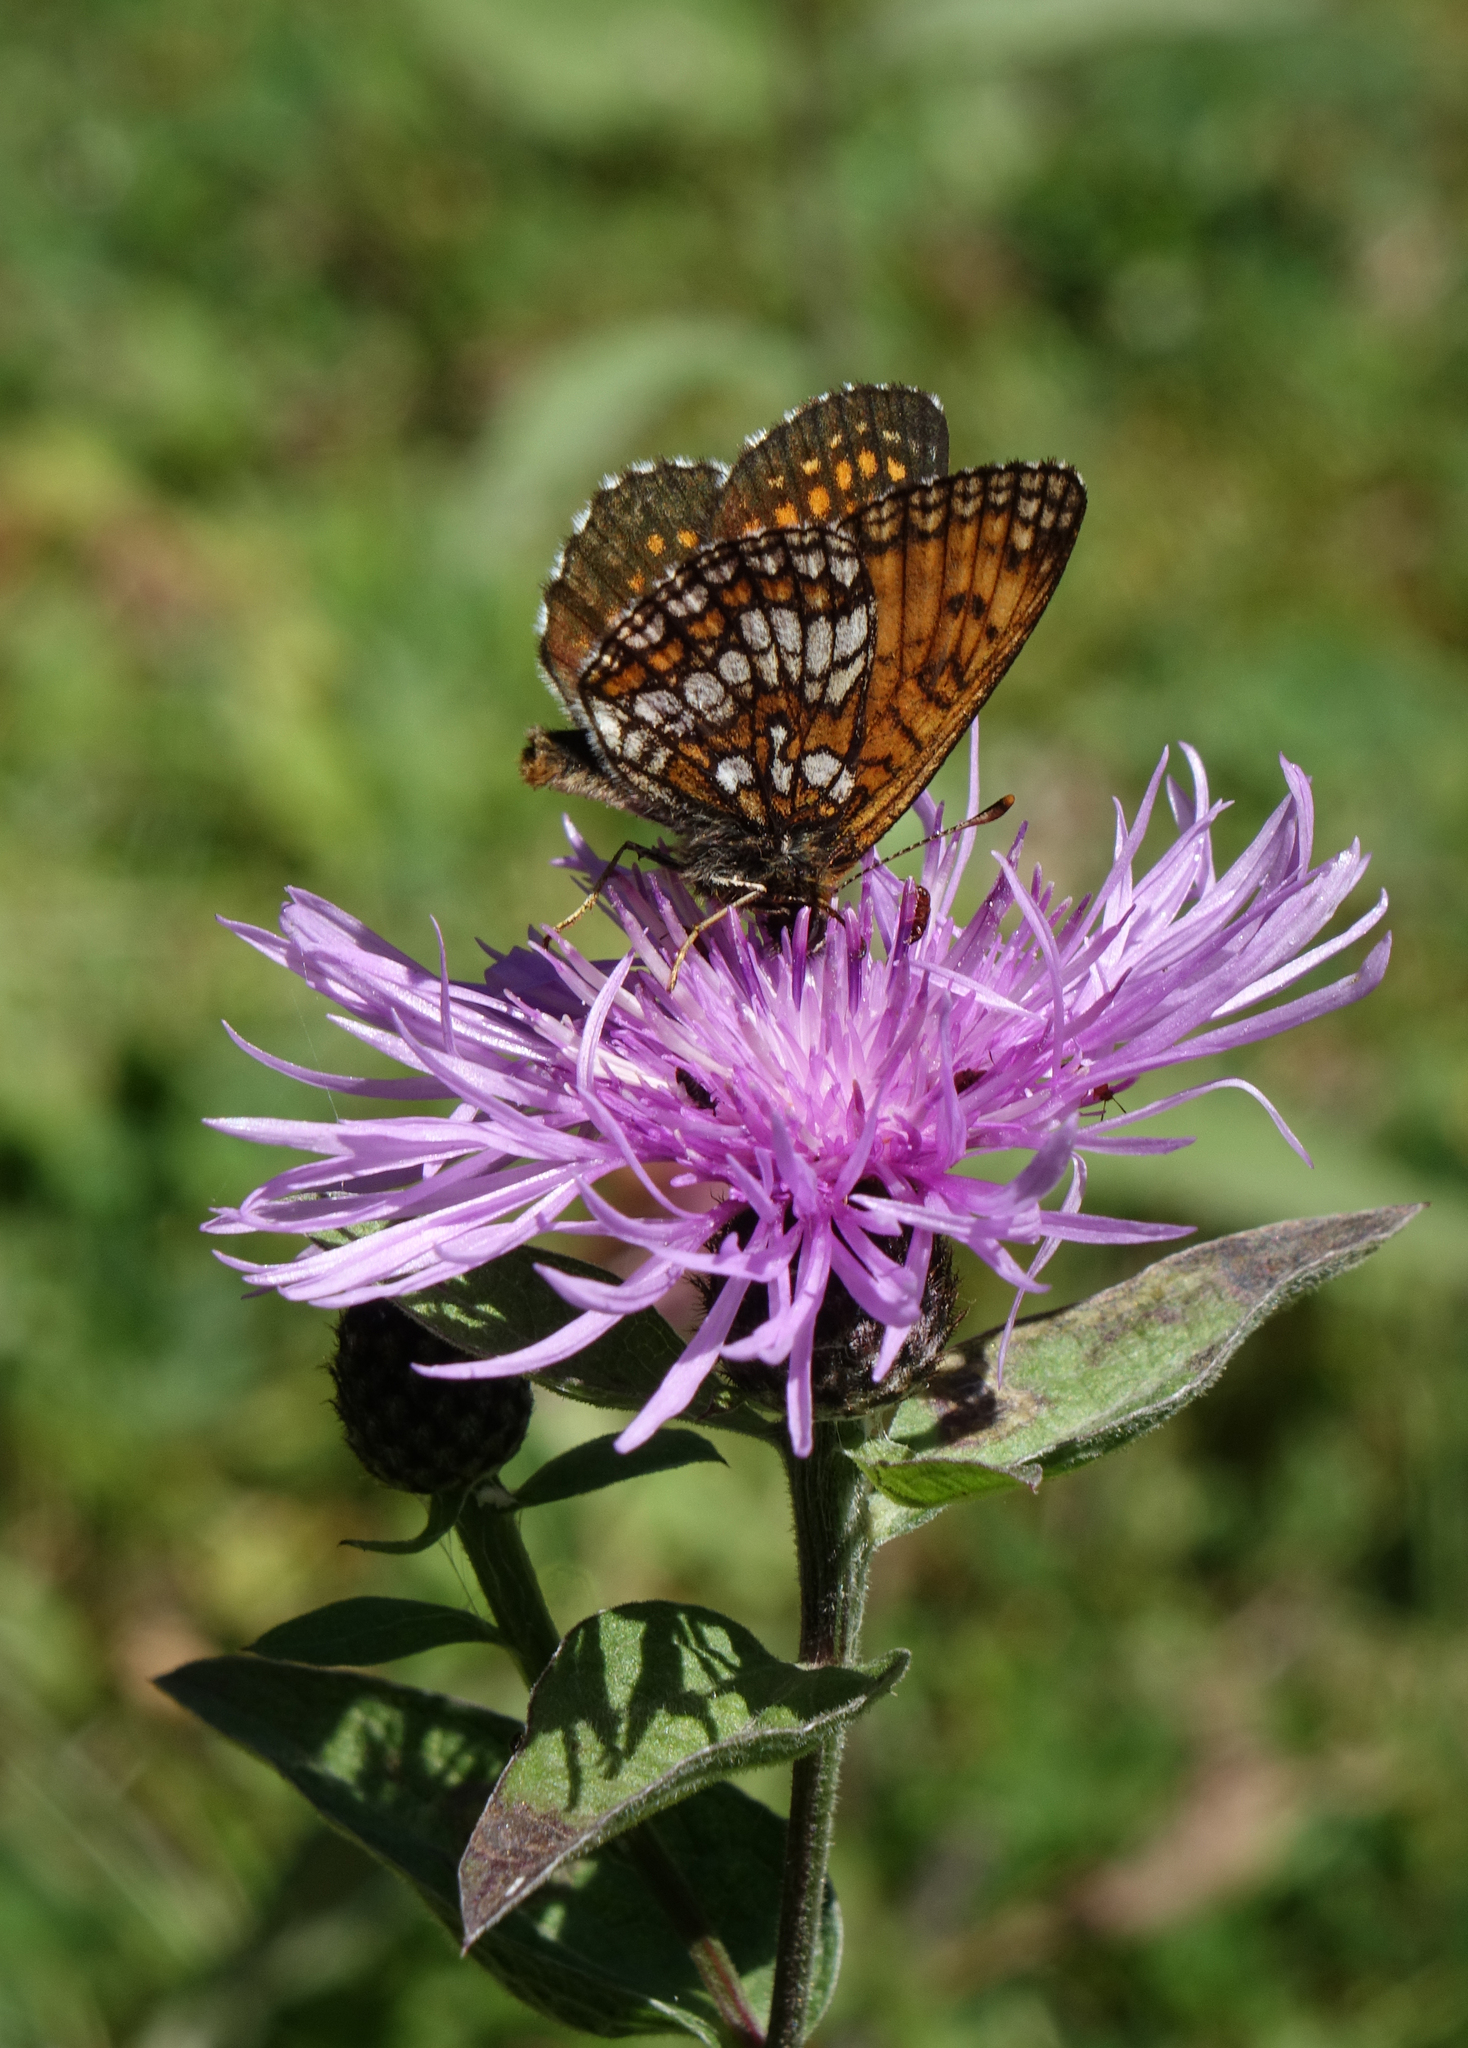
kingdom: Animalia
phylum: Arthropoda
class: Insecta
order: Lepidoptera
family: Nymphalidae
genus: Mellicta
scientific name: Mellicta athalia
